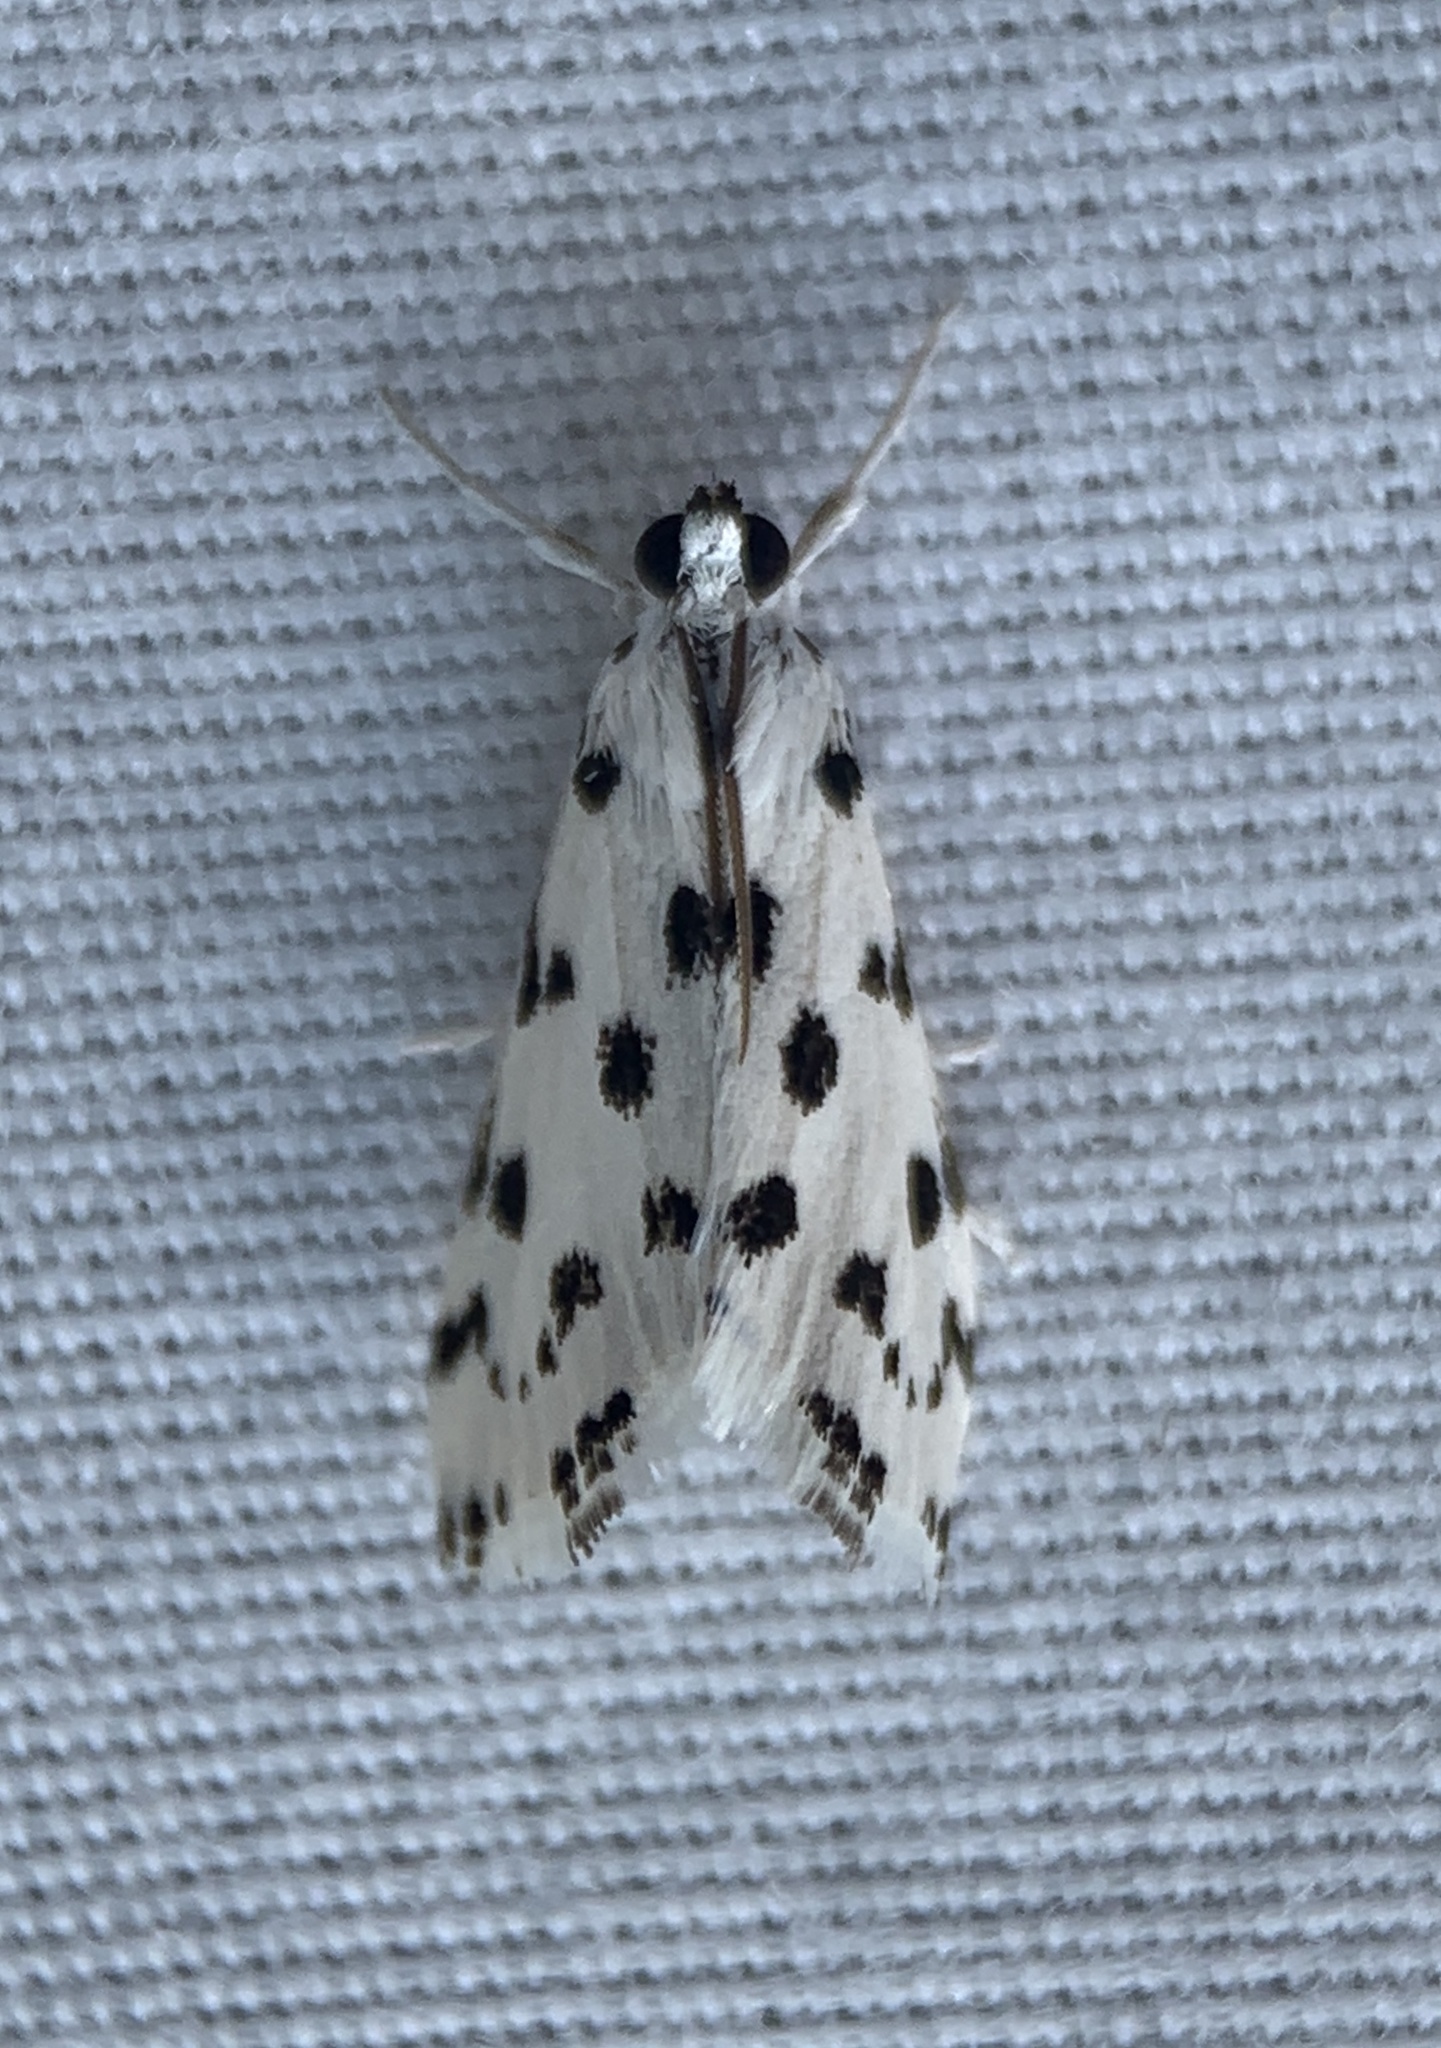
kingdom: Animalia
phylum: Arthropoda
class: Insecta
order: Lepidoptera
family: Crambidae
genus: Eustixia
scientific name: Eustixia pupula
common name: American cabbage pearl
